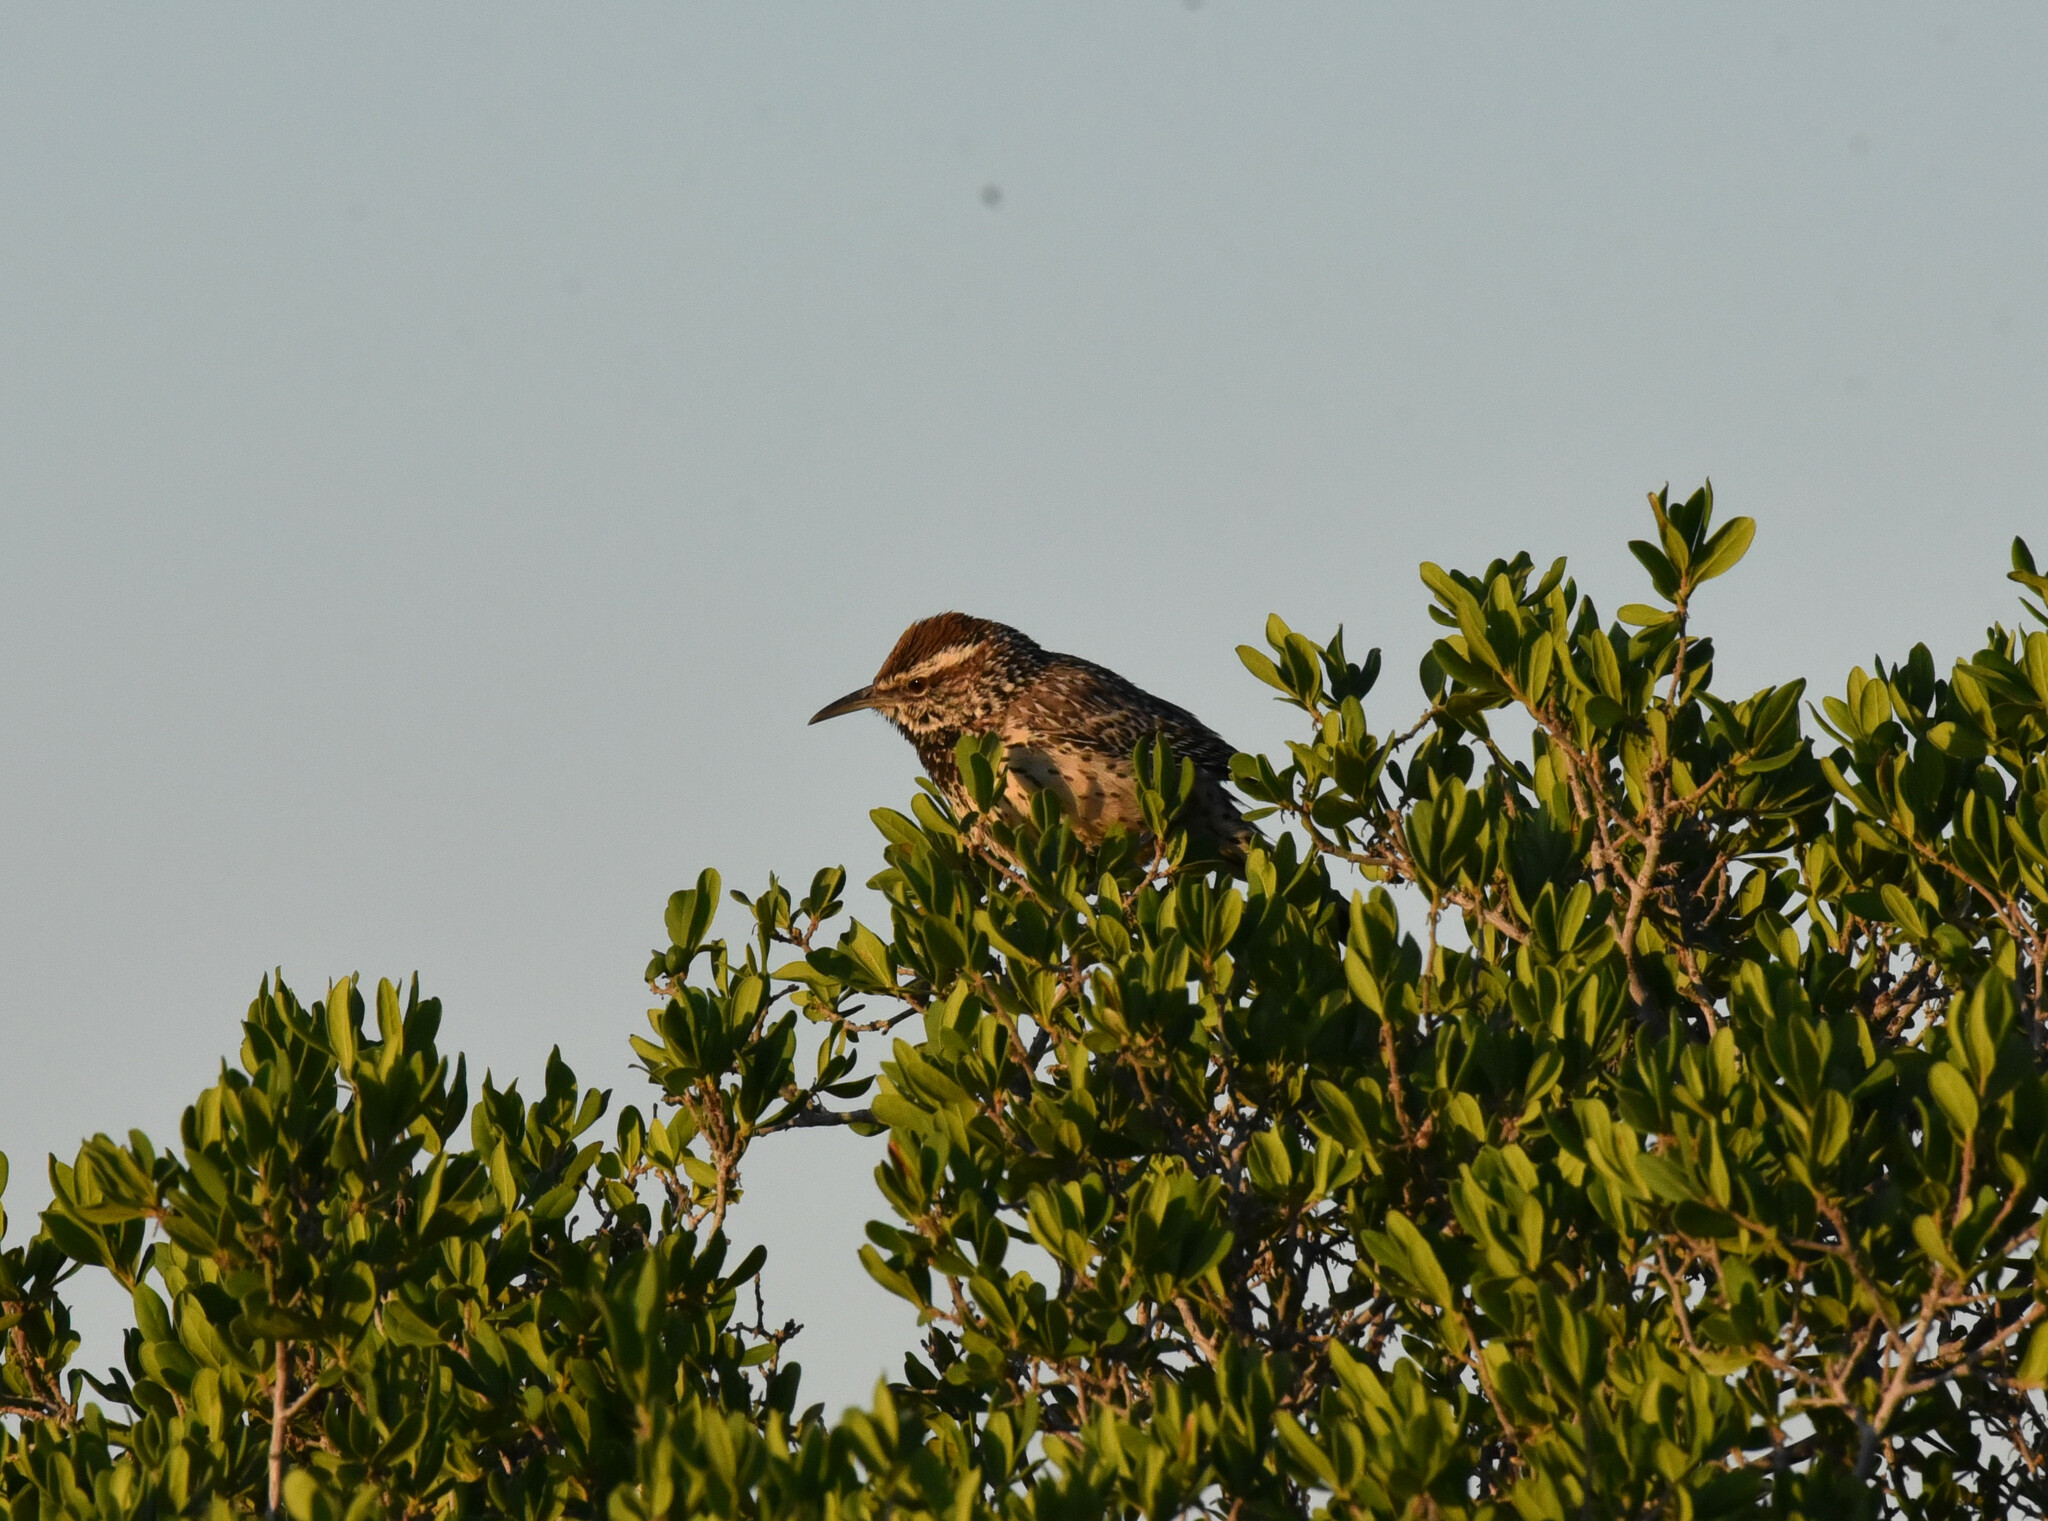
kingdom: Animalia
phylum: Chordata
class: Aves
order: Passeriformes
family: Troglodytidae
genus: Campylorhynchus
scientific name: Campylorhynchus brunneicapillus
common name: Cactus wren
